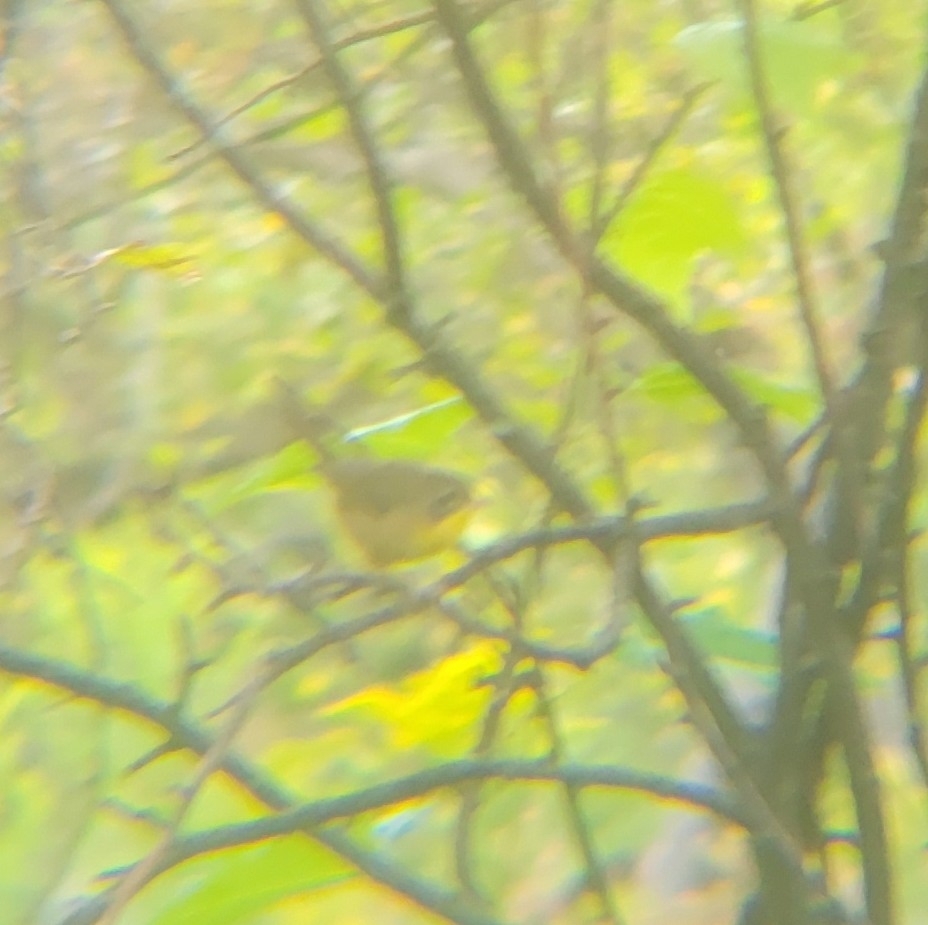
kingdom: Animalia
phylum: Chordata
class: Aves
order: Passeriformes
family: Parulidae
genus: Geothlypis
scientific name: Geothlypis trichas
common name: Common yellowthroat
